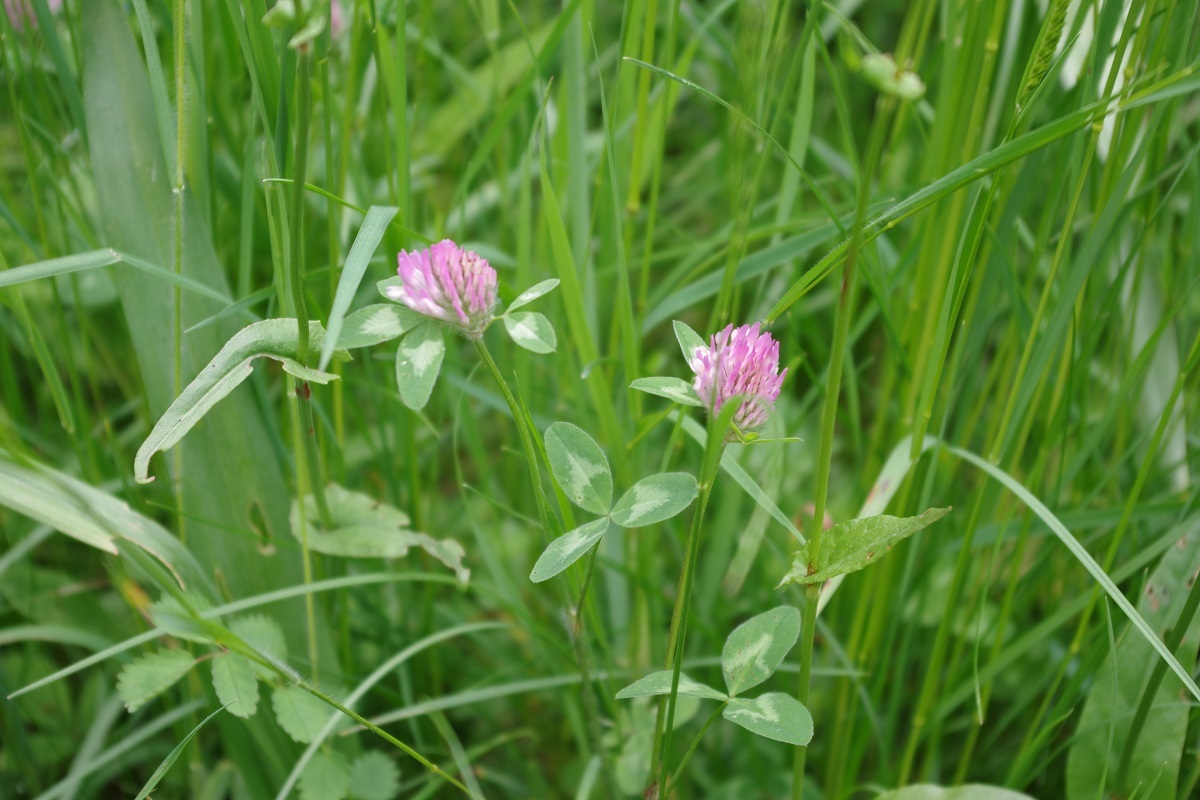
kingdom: Plantae
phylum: Tracheophyta
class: Magnoliopsida
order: Fabales
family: Fabaceae
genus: Trifolium
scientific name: Trifolium pratense
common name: Red clover
